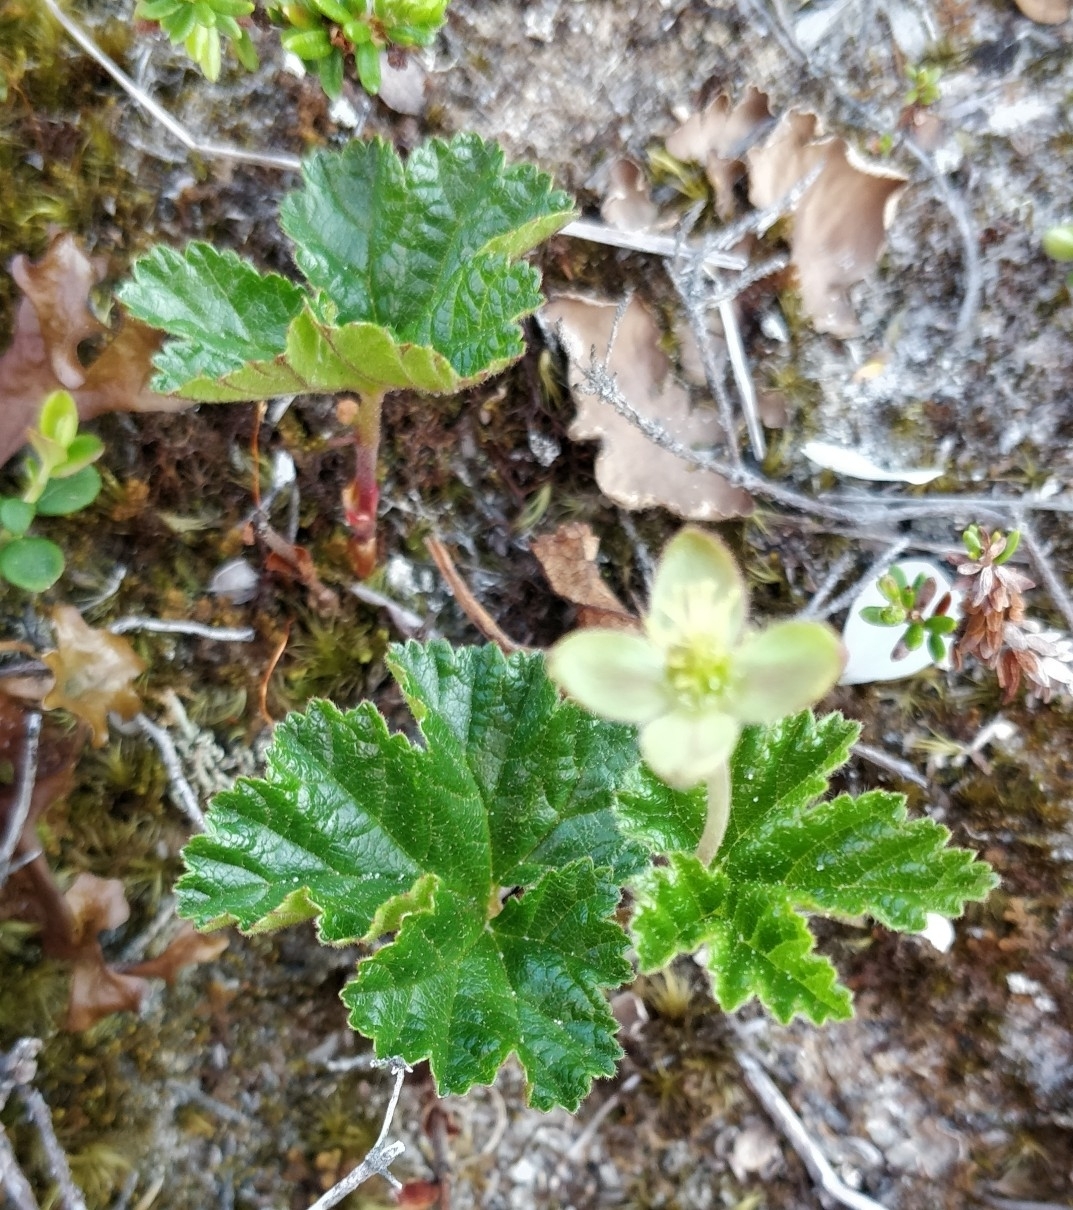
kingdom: Plantae
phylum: Tracheophyta
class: Magnoliopsida
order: Rosales
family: Rosaceae
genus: Rubus
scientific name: Rubus chamaemorus
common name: Cloudberry
